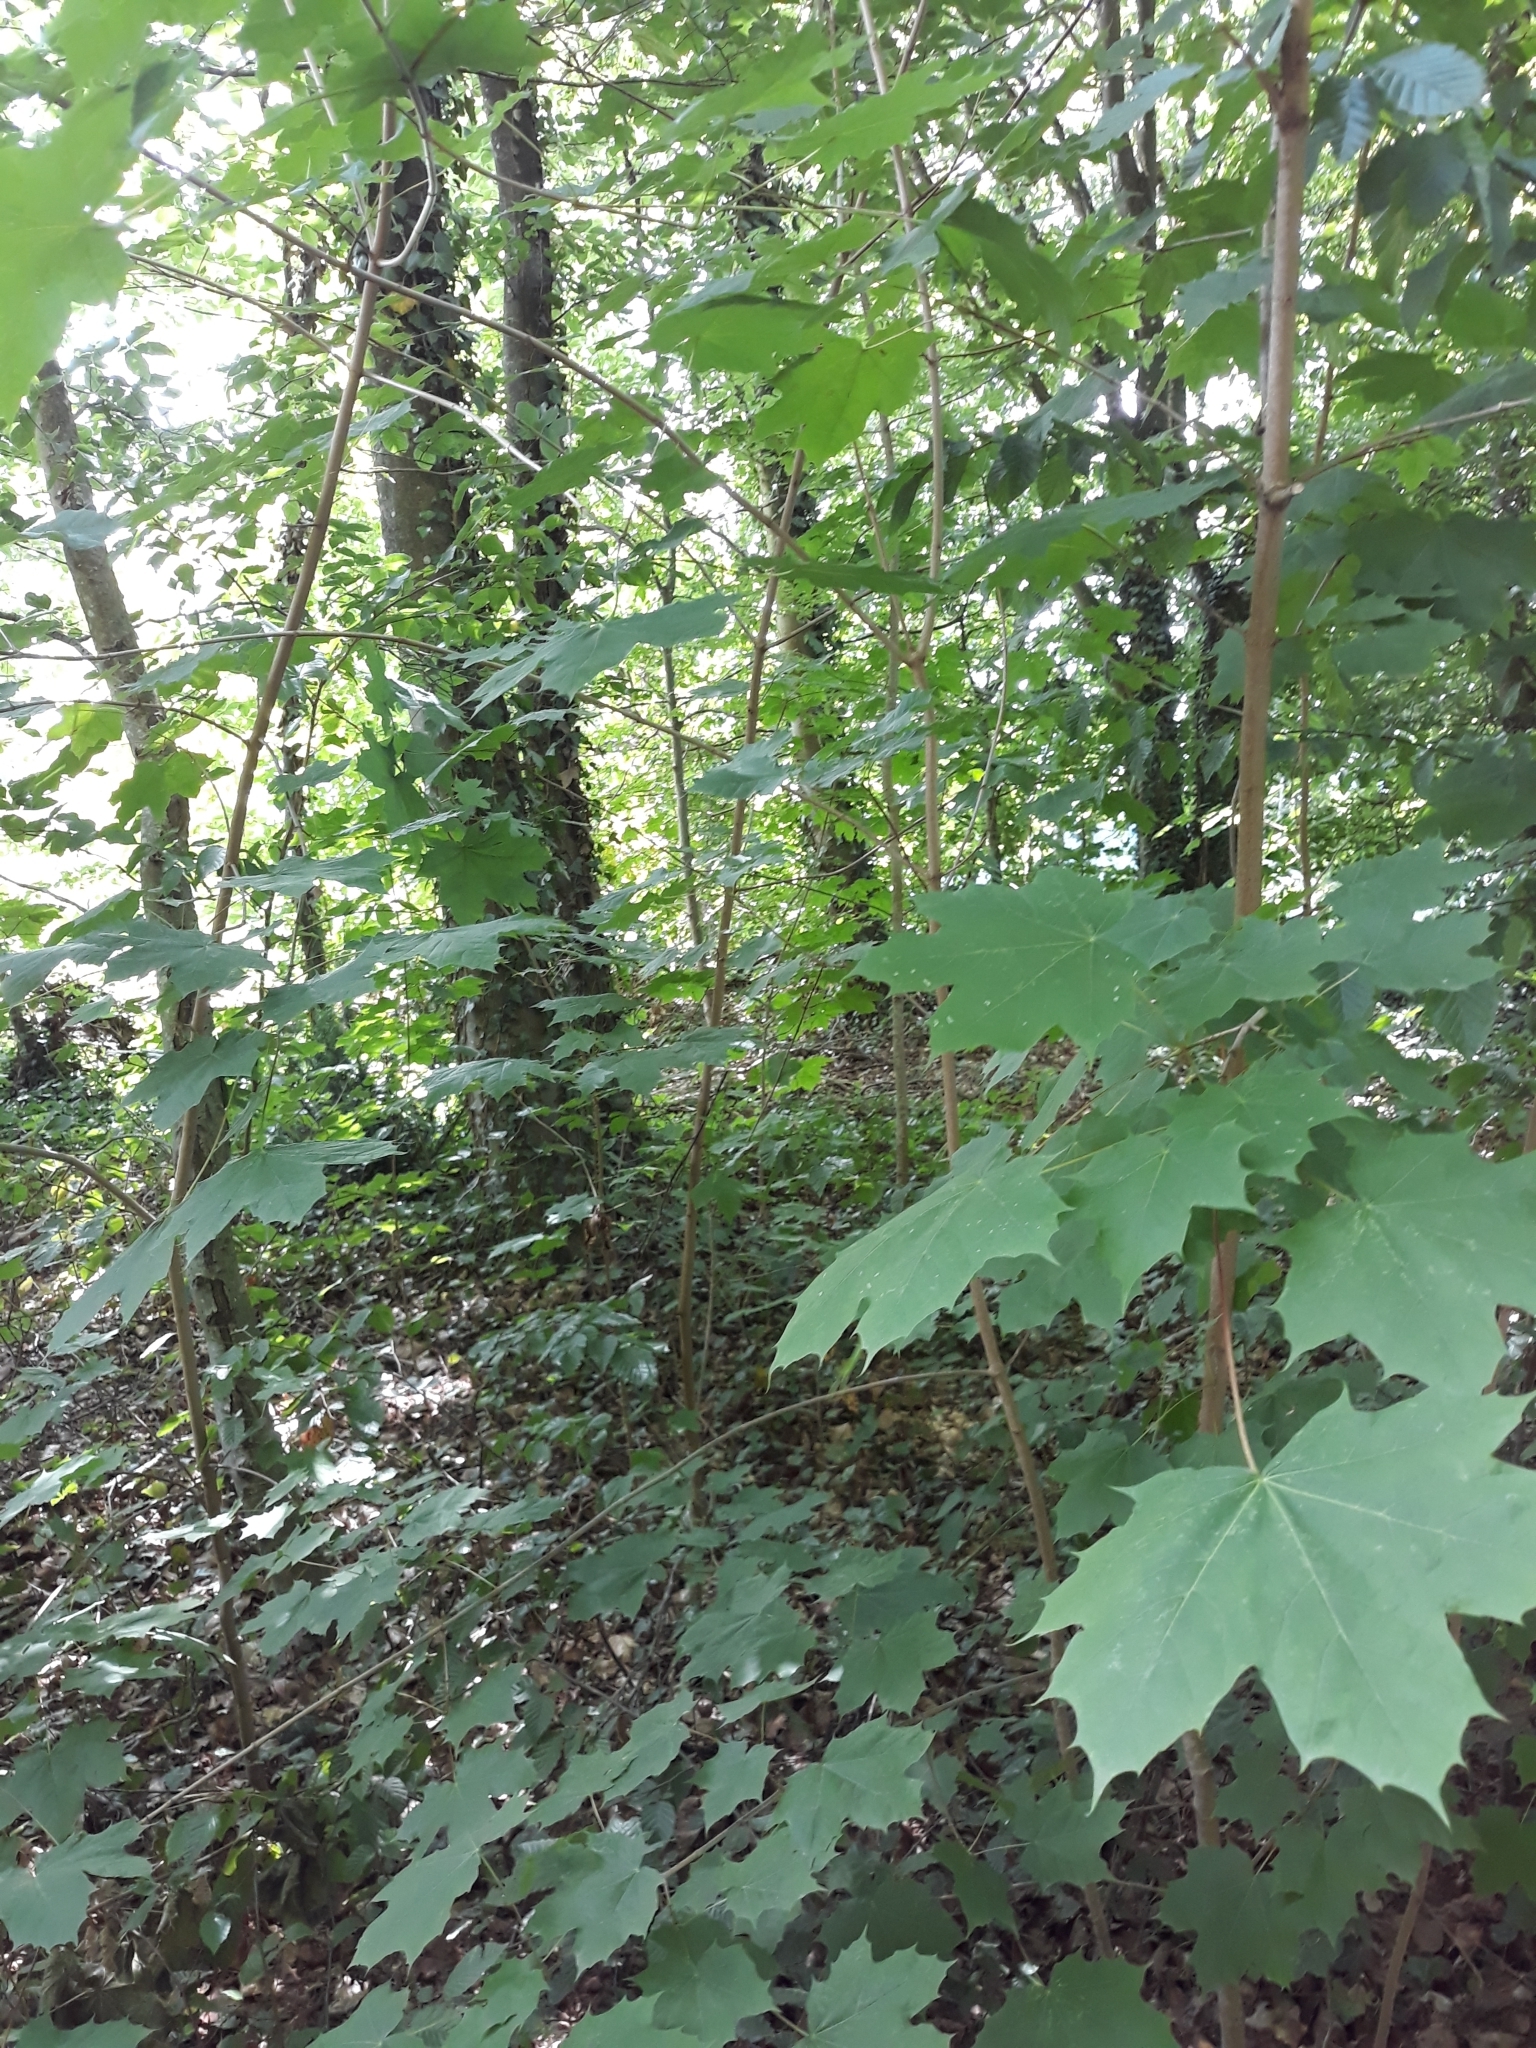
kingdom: Plantae
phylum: Tracheophyta
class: Magnoliopsida
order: Sapindales
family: Sapindaceae
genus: Acer
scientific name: Acer platanoides
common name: Norway maple
